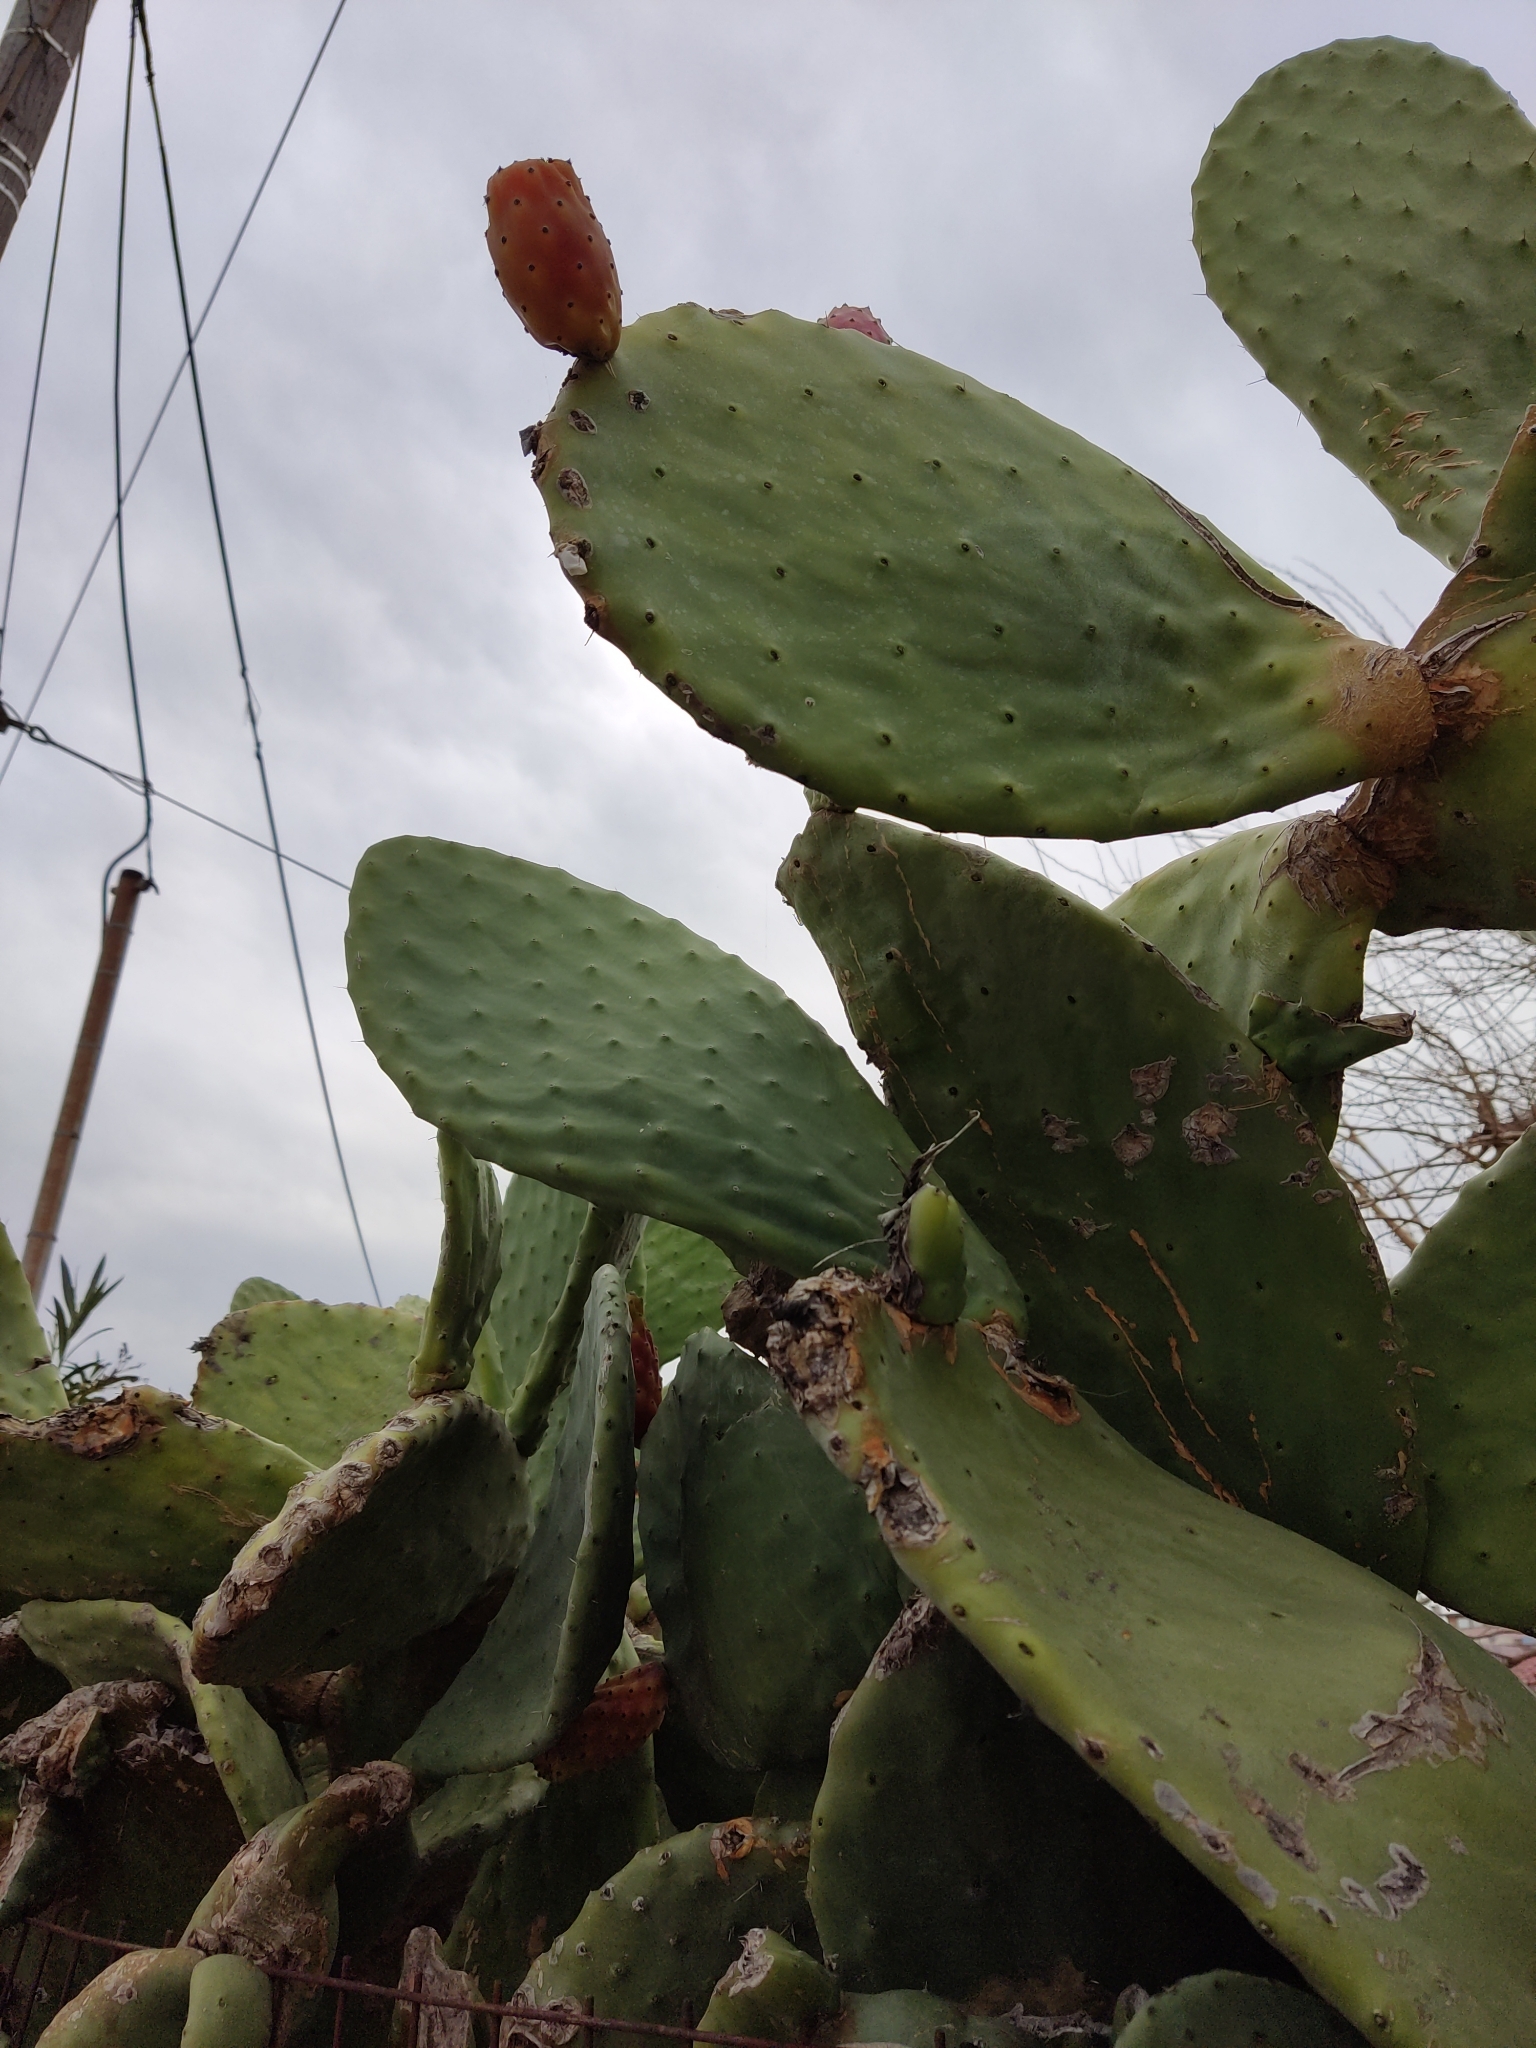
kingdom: Plantae
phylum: Tracheophyta
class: Magnoliopsida
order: Caryophyllales
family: Cactaceae
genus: Opuntia
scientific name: Opuntia ficus-indica
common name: Barbary fig
